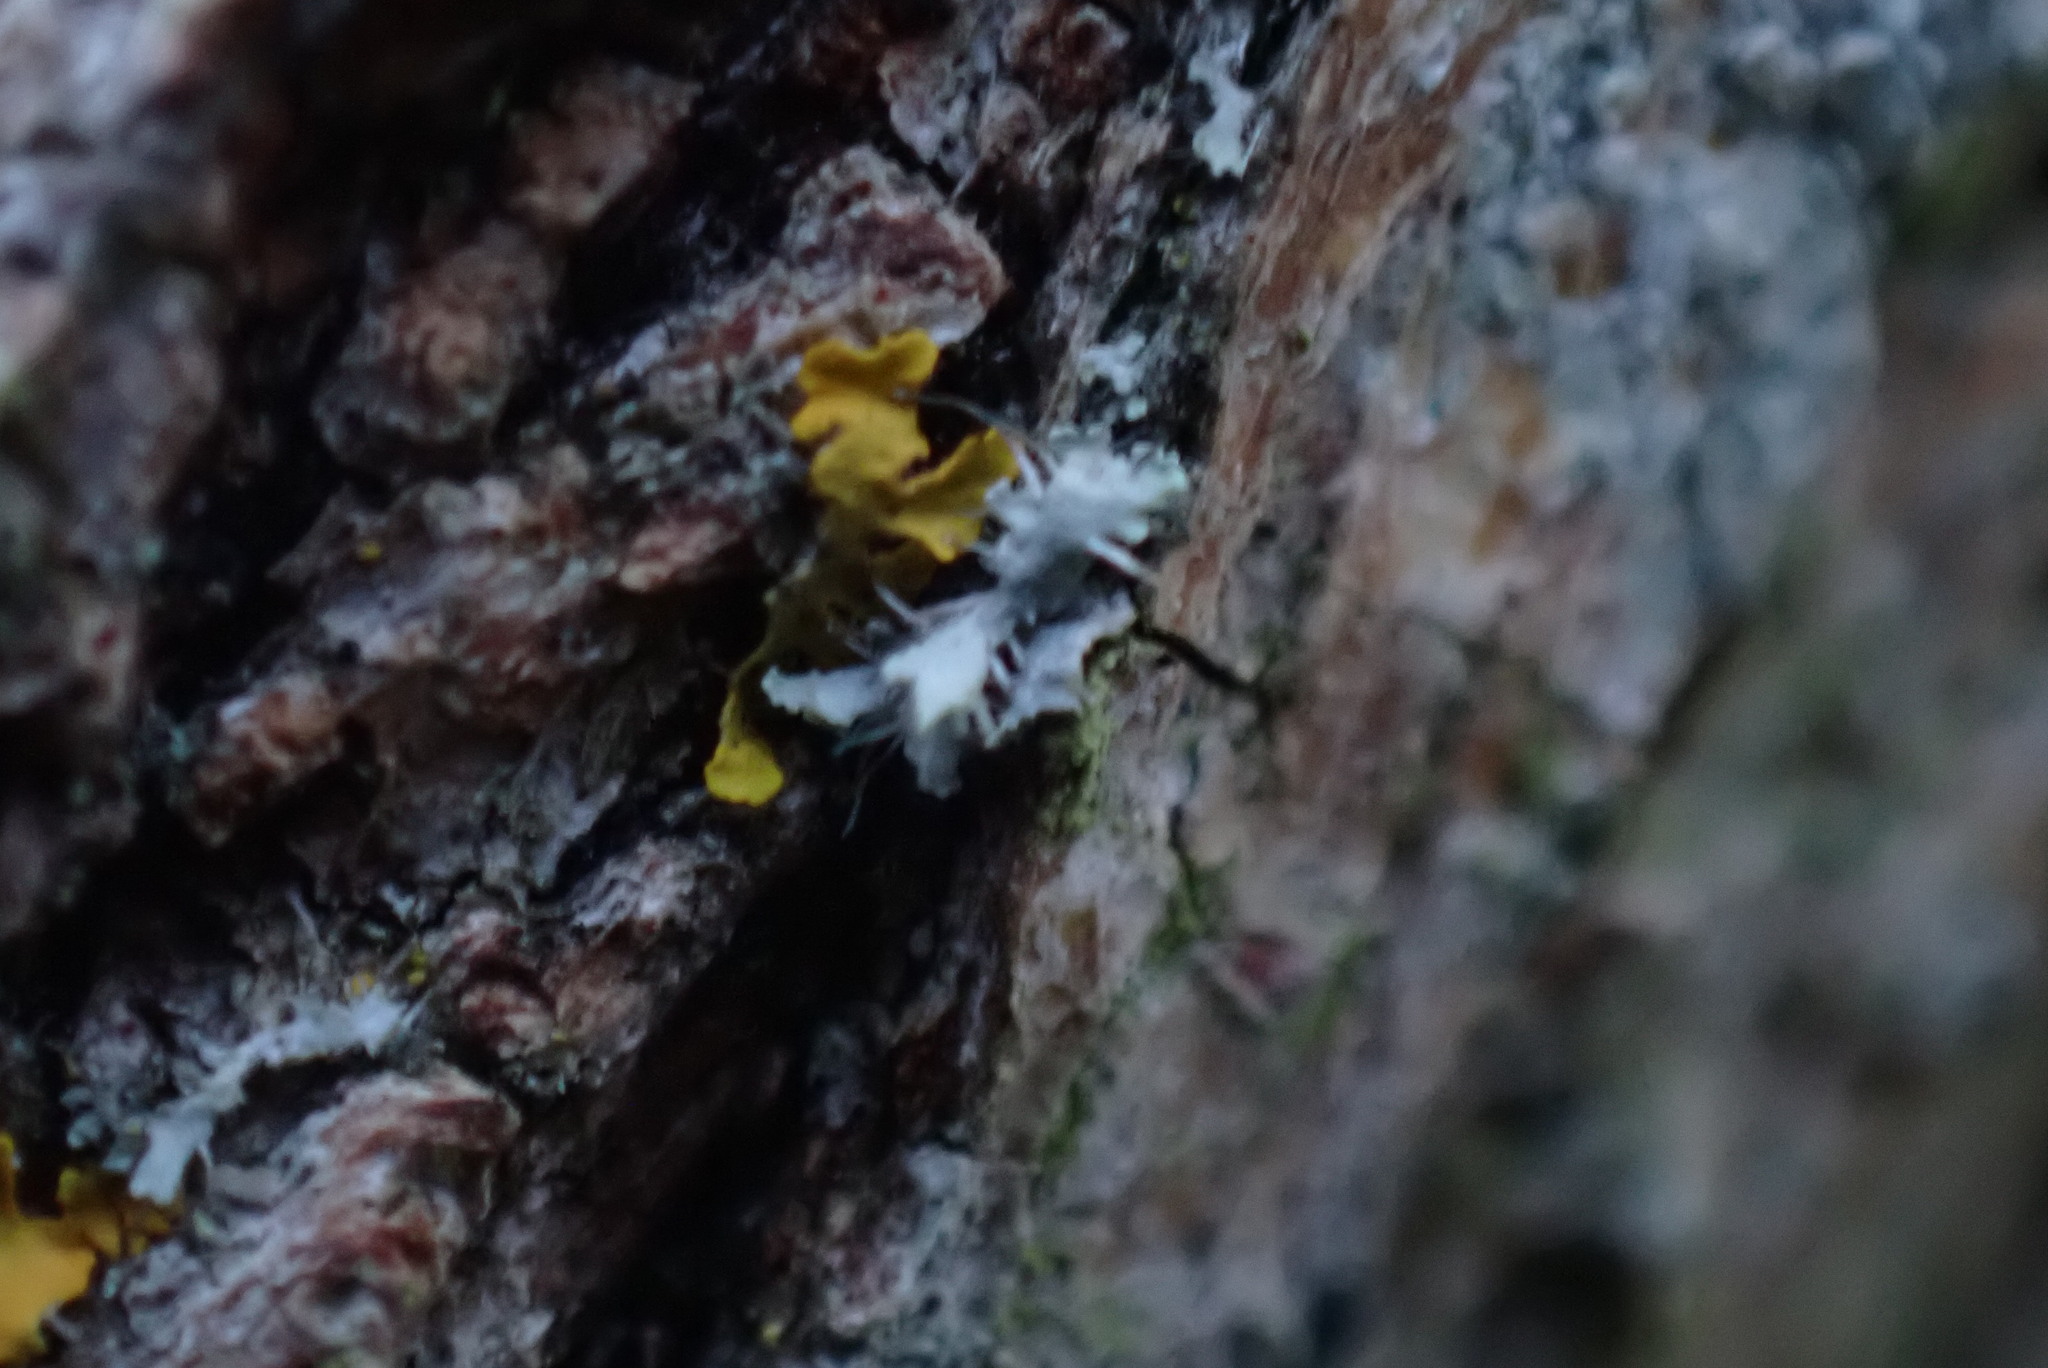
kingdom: Fungi
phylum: Ascomycota
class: Lecanoromycetes
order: Caliciales
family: Physciaceae
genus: Physcia
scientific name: Physcia adscendens
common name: Hooded rosette lichen
